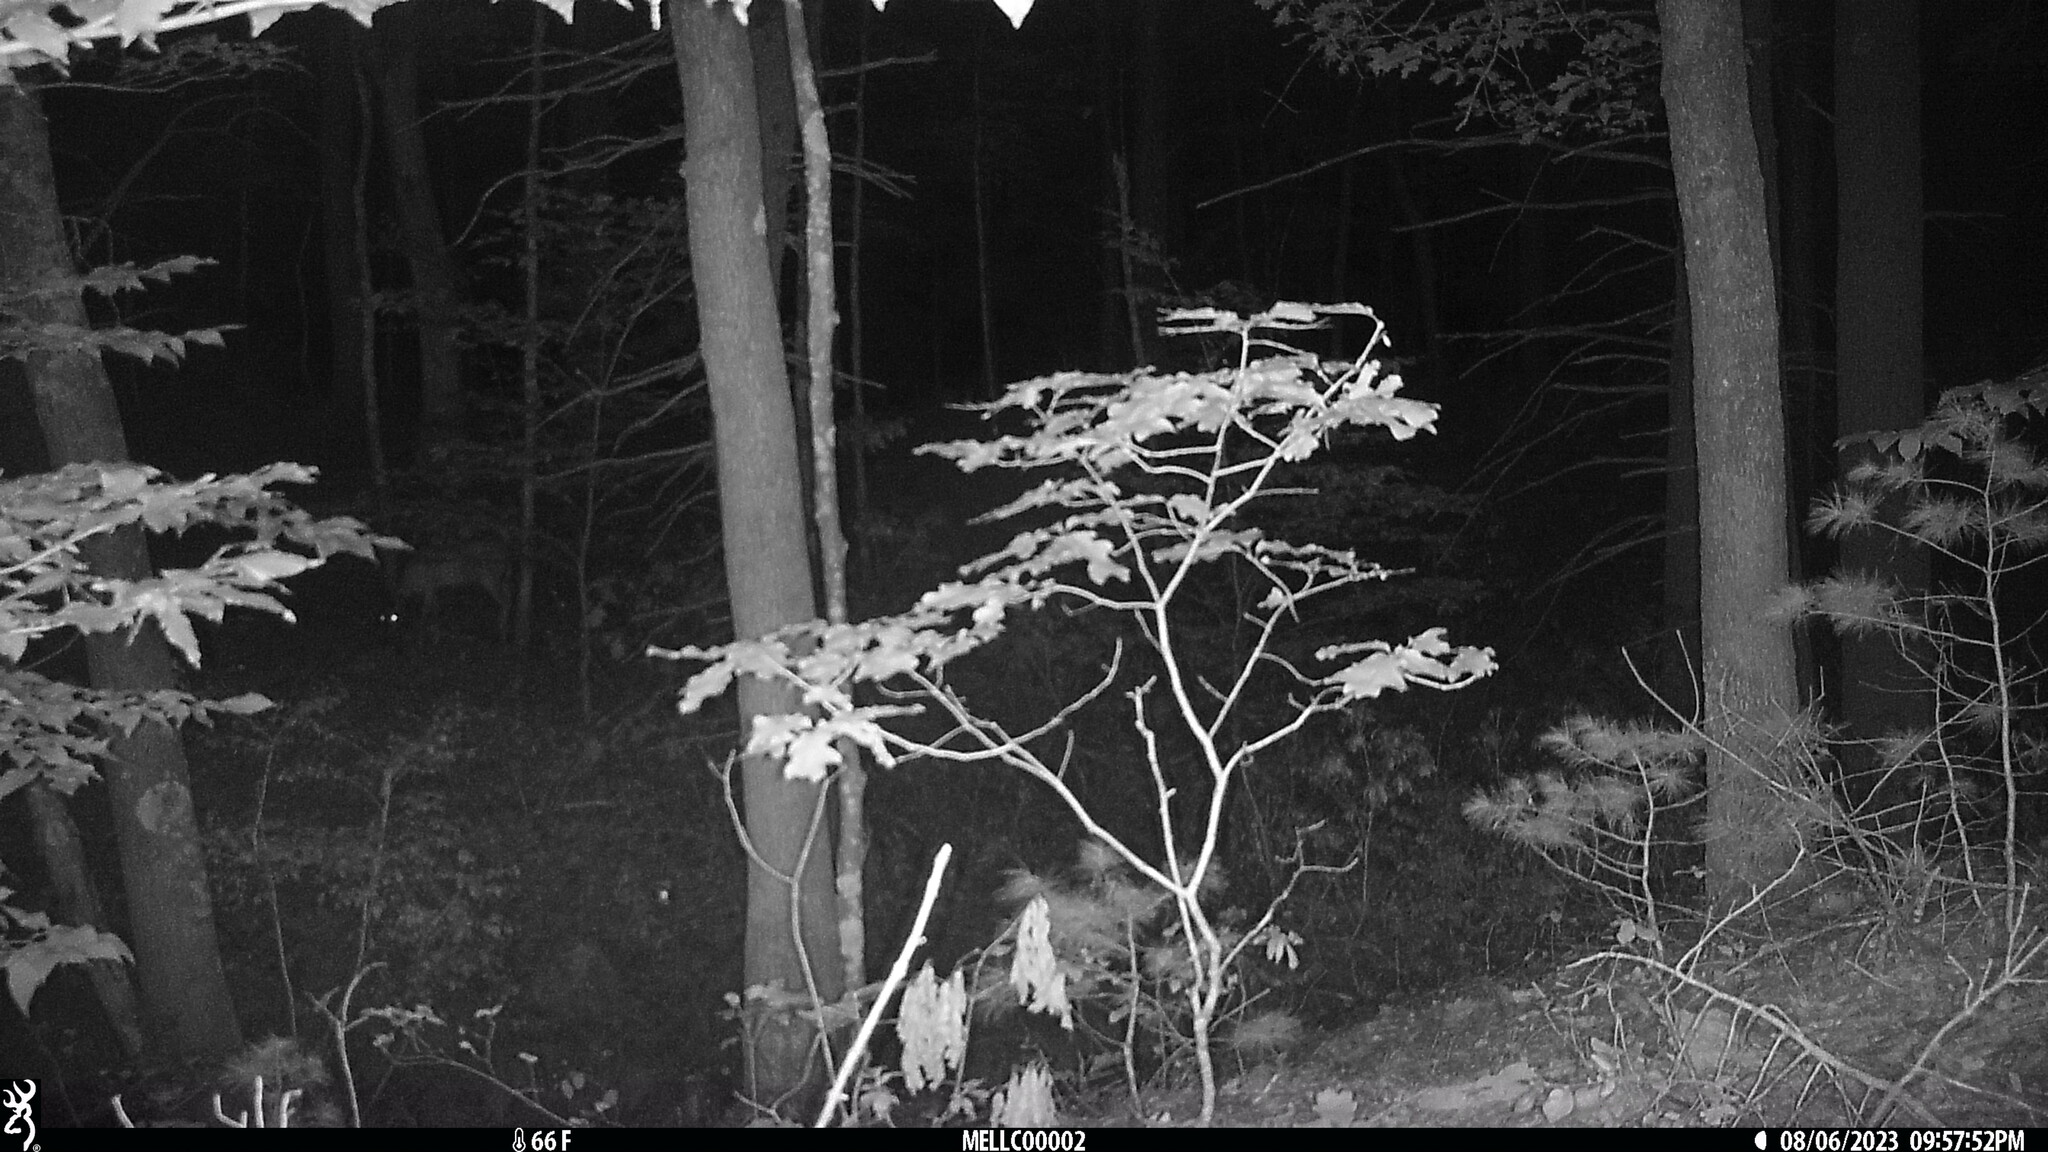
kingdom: Animalia
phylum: Chordata
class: Mammalia
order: Artiodactyla
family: Cervidae
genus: Odocoileus
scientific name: Odocoileus virginianus
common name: White-tailed deer
